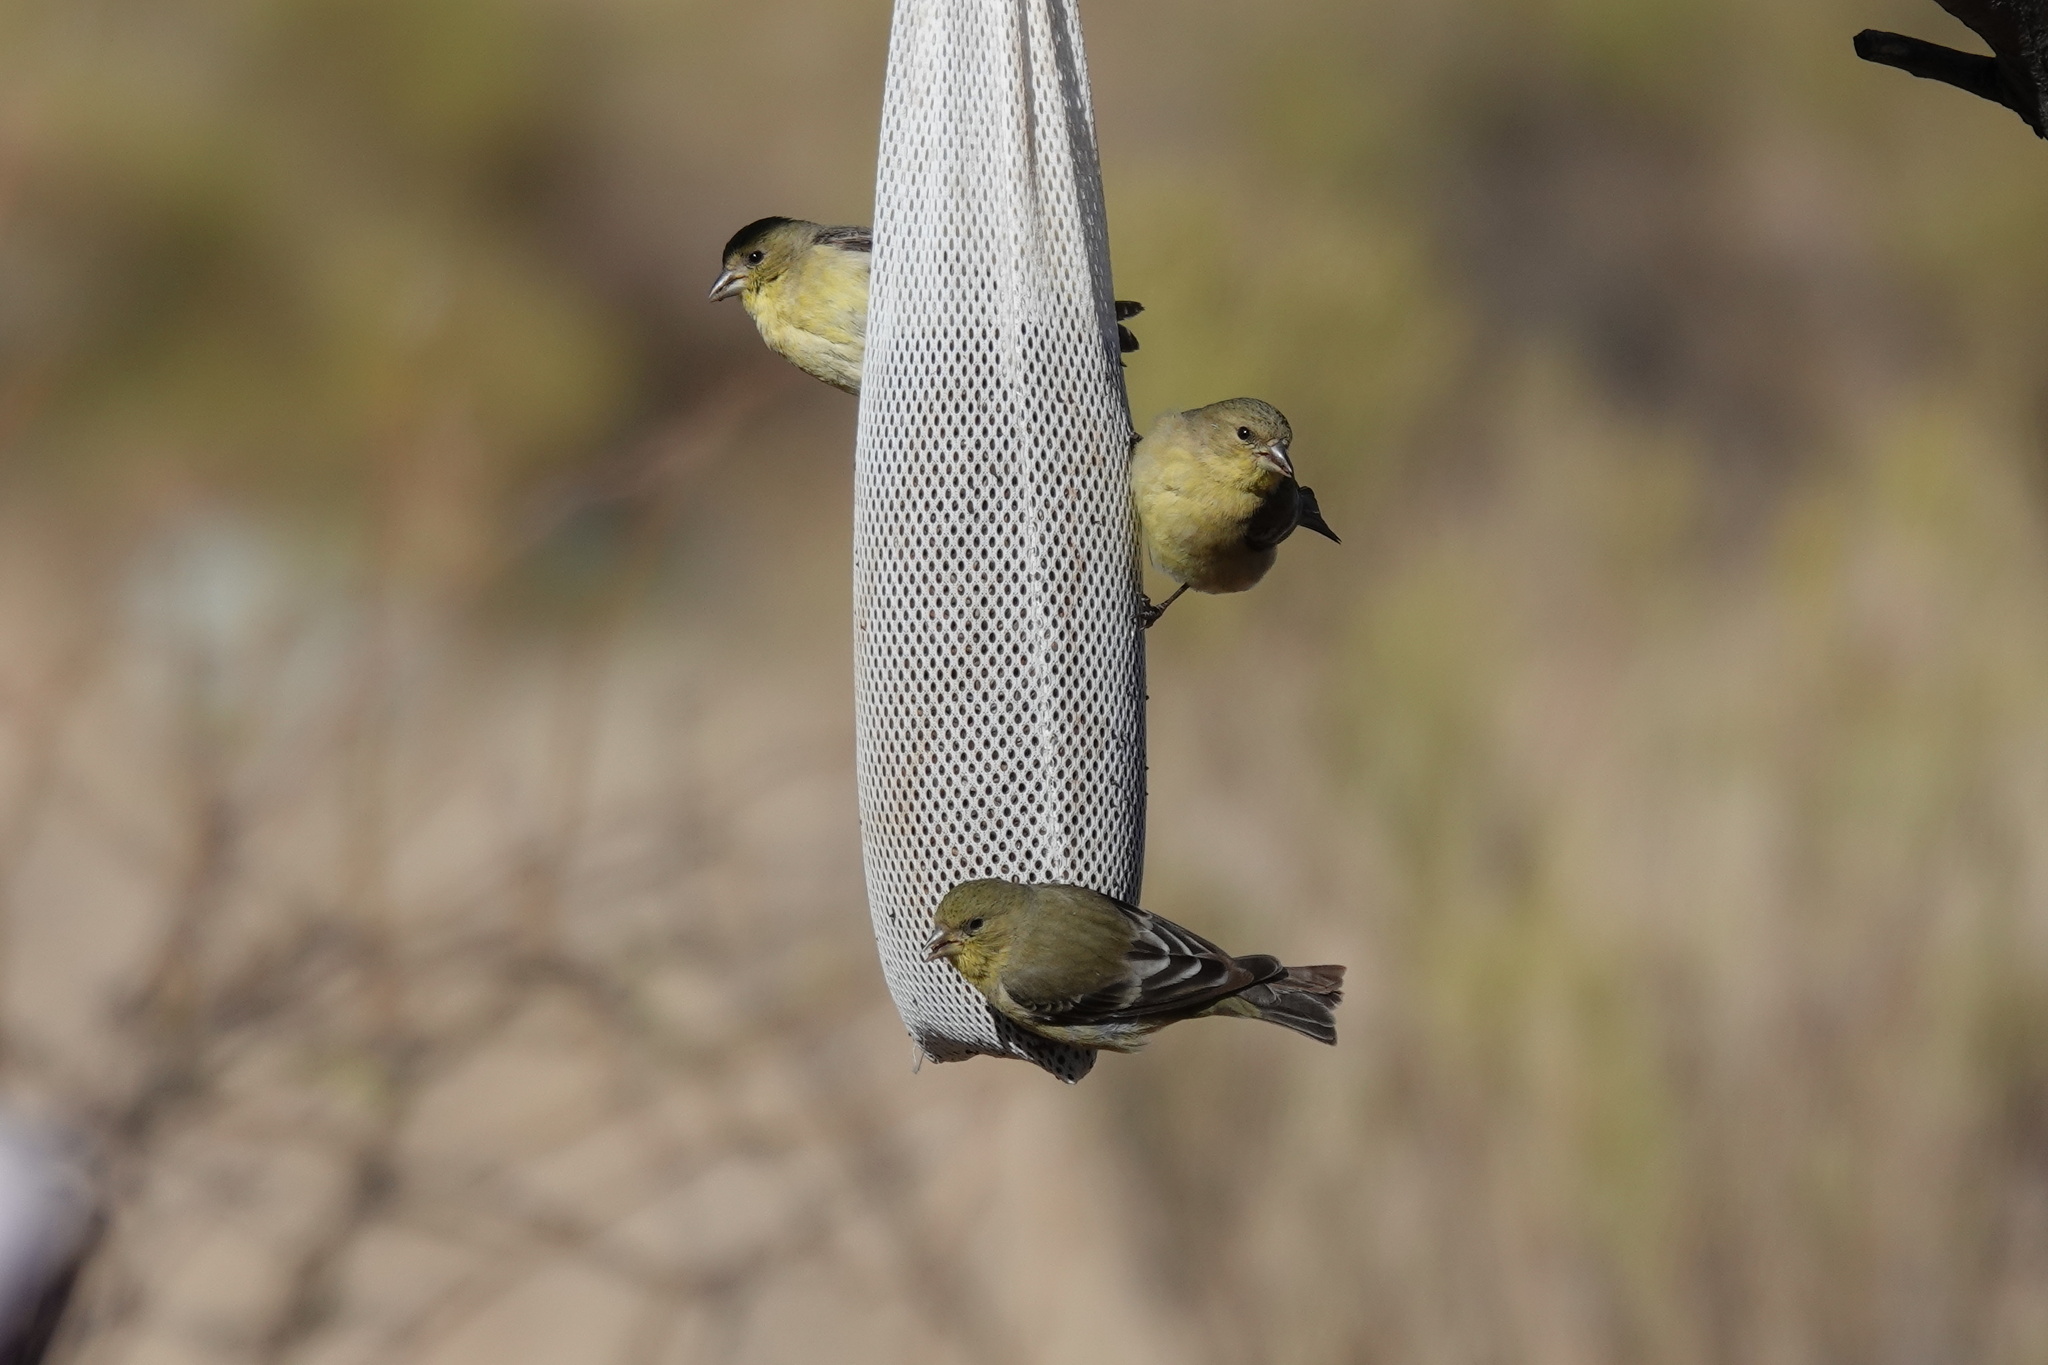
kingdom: Animalia
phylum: Chordata
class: Aves
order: Passeriformes
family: Fringillidae
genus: Spinus
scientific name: Spinus psaltria
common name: Lesser goldfinch
